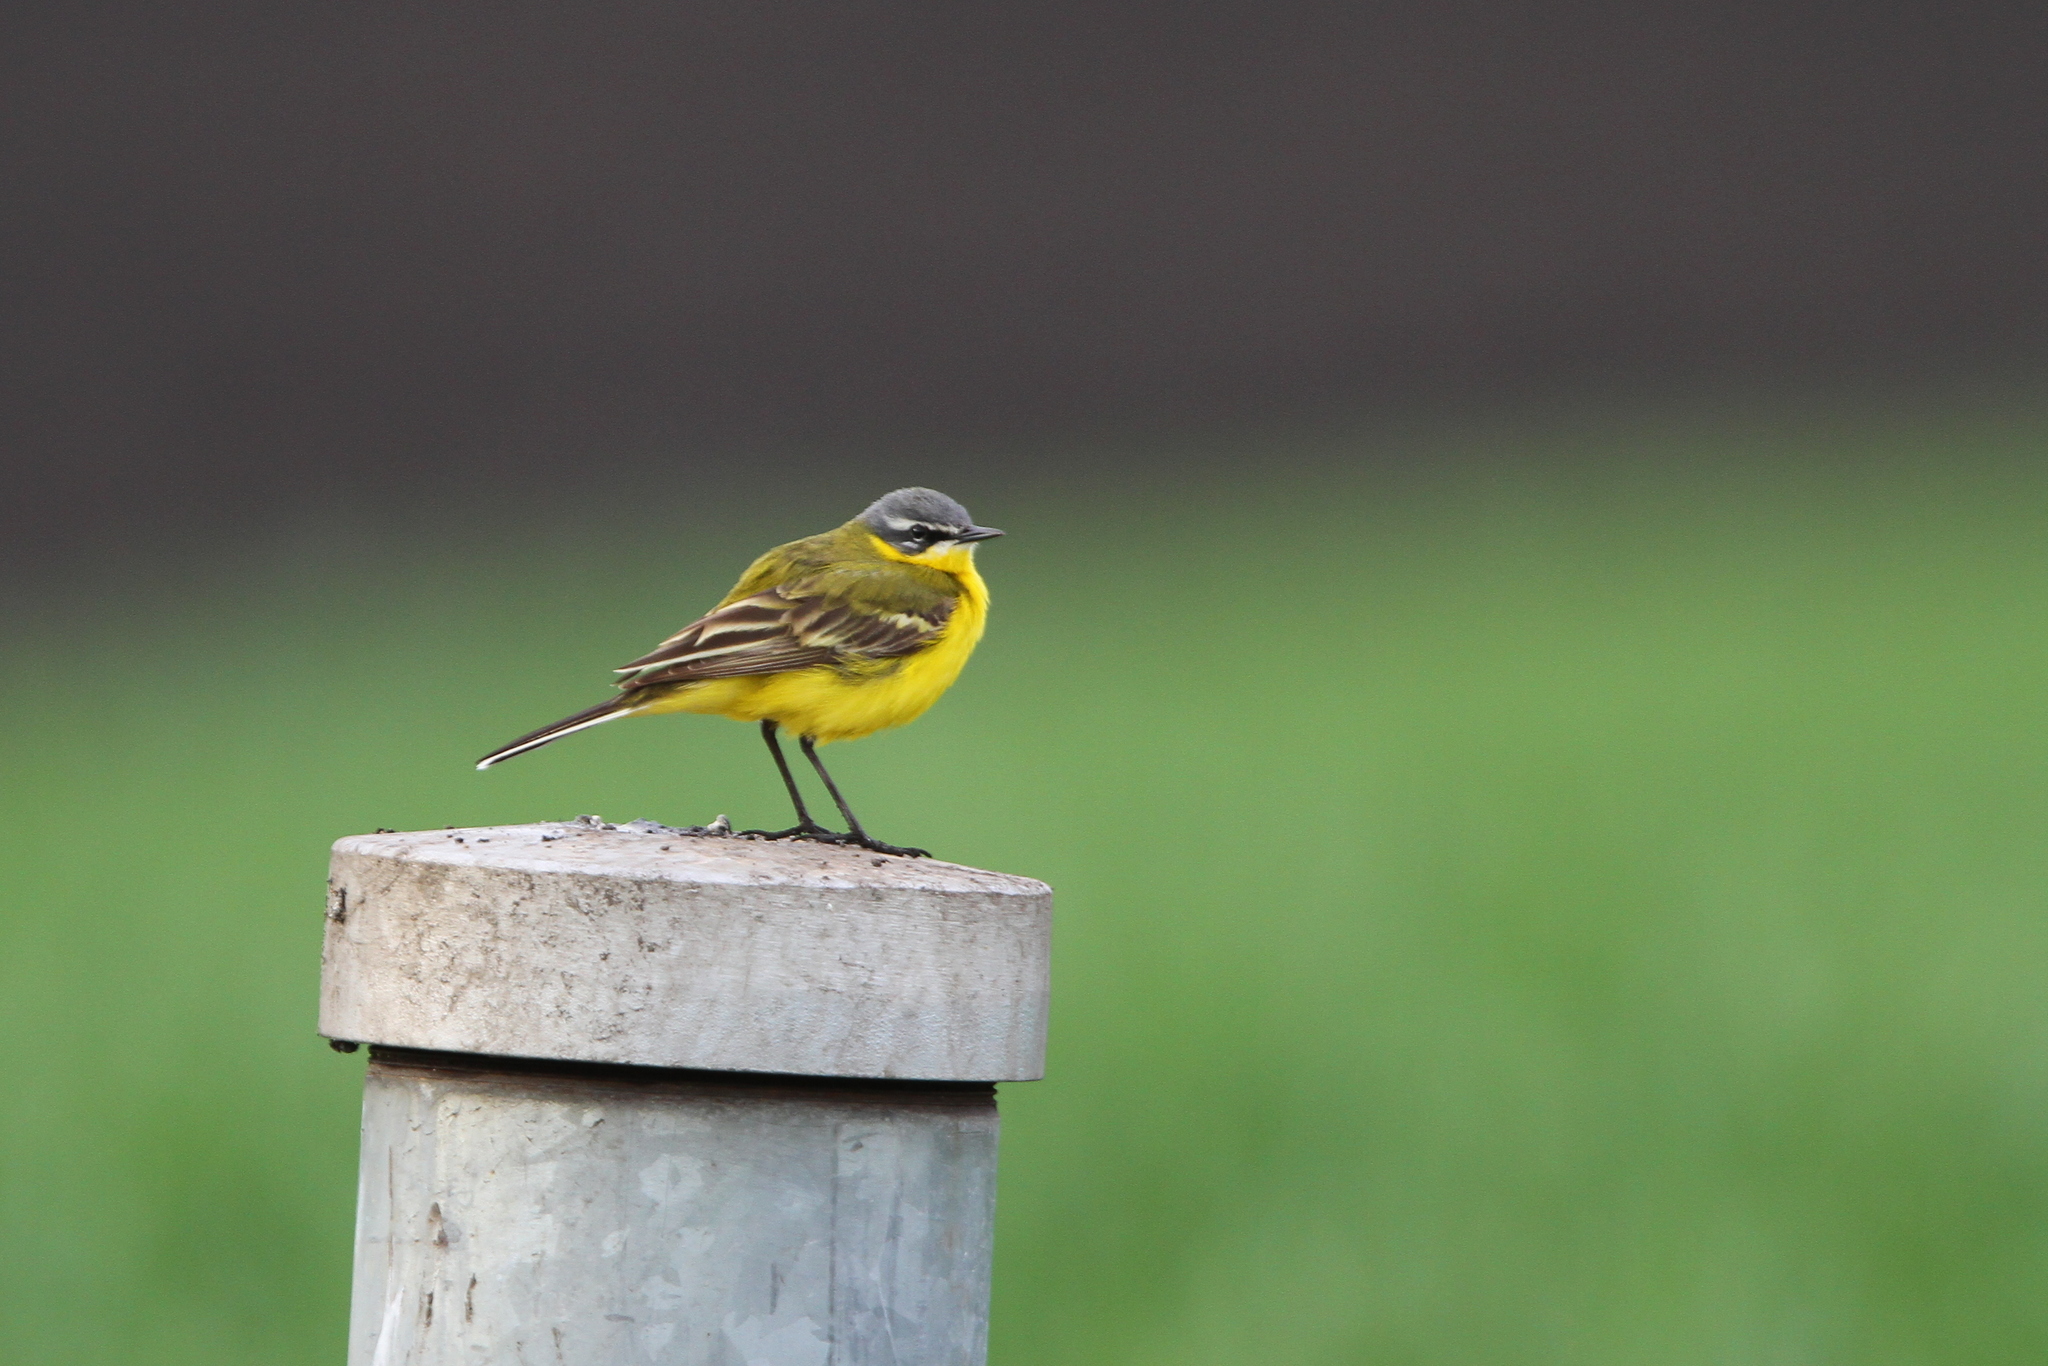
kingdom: Animalia
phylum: Chordata
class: Aves
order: Passeriformes
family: Motacillidae
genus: Motacilla
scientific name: Motacilla flava
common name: Western yellow wagtail
